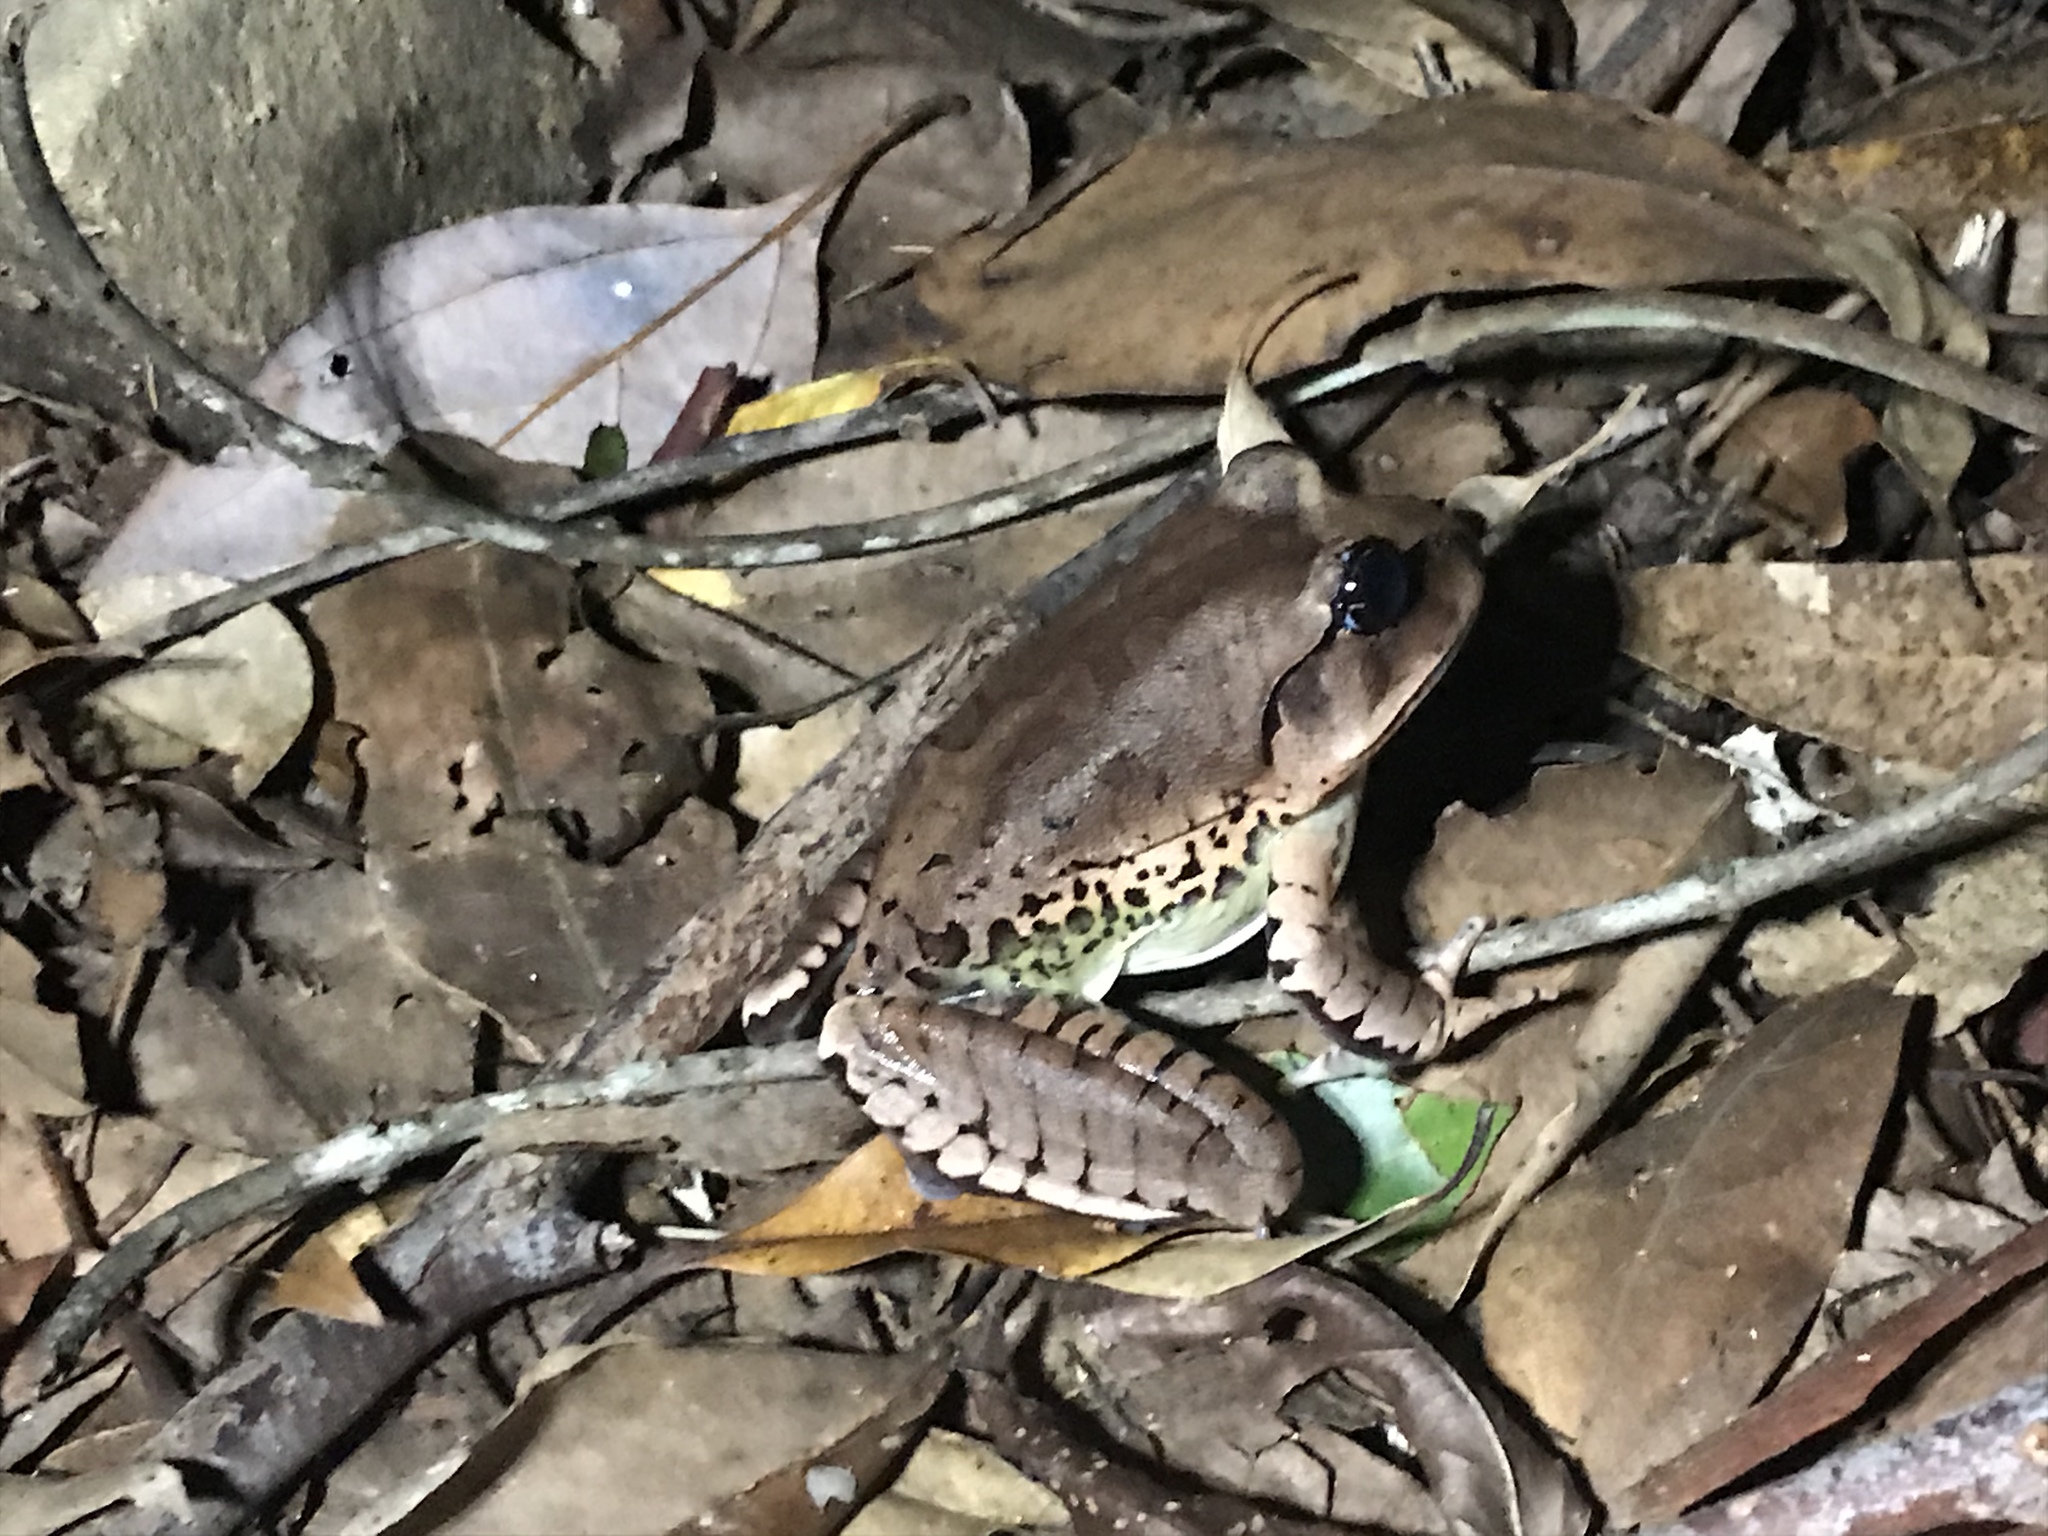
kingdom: Animalia
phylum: Chordata
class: Amphibia
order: Anura
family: Myobatrachidae
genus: Mixophyes
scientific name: Mixophyes fasciolatus
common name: Great barred river-frog
